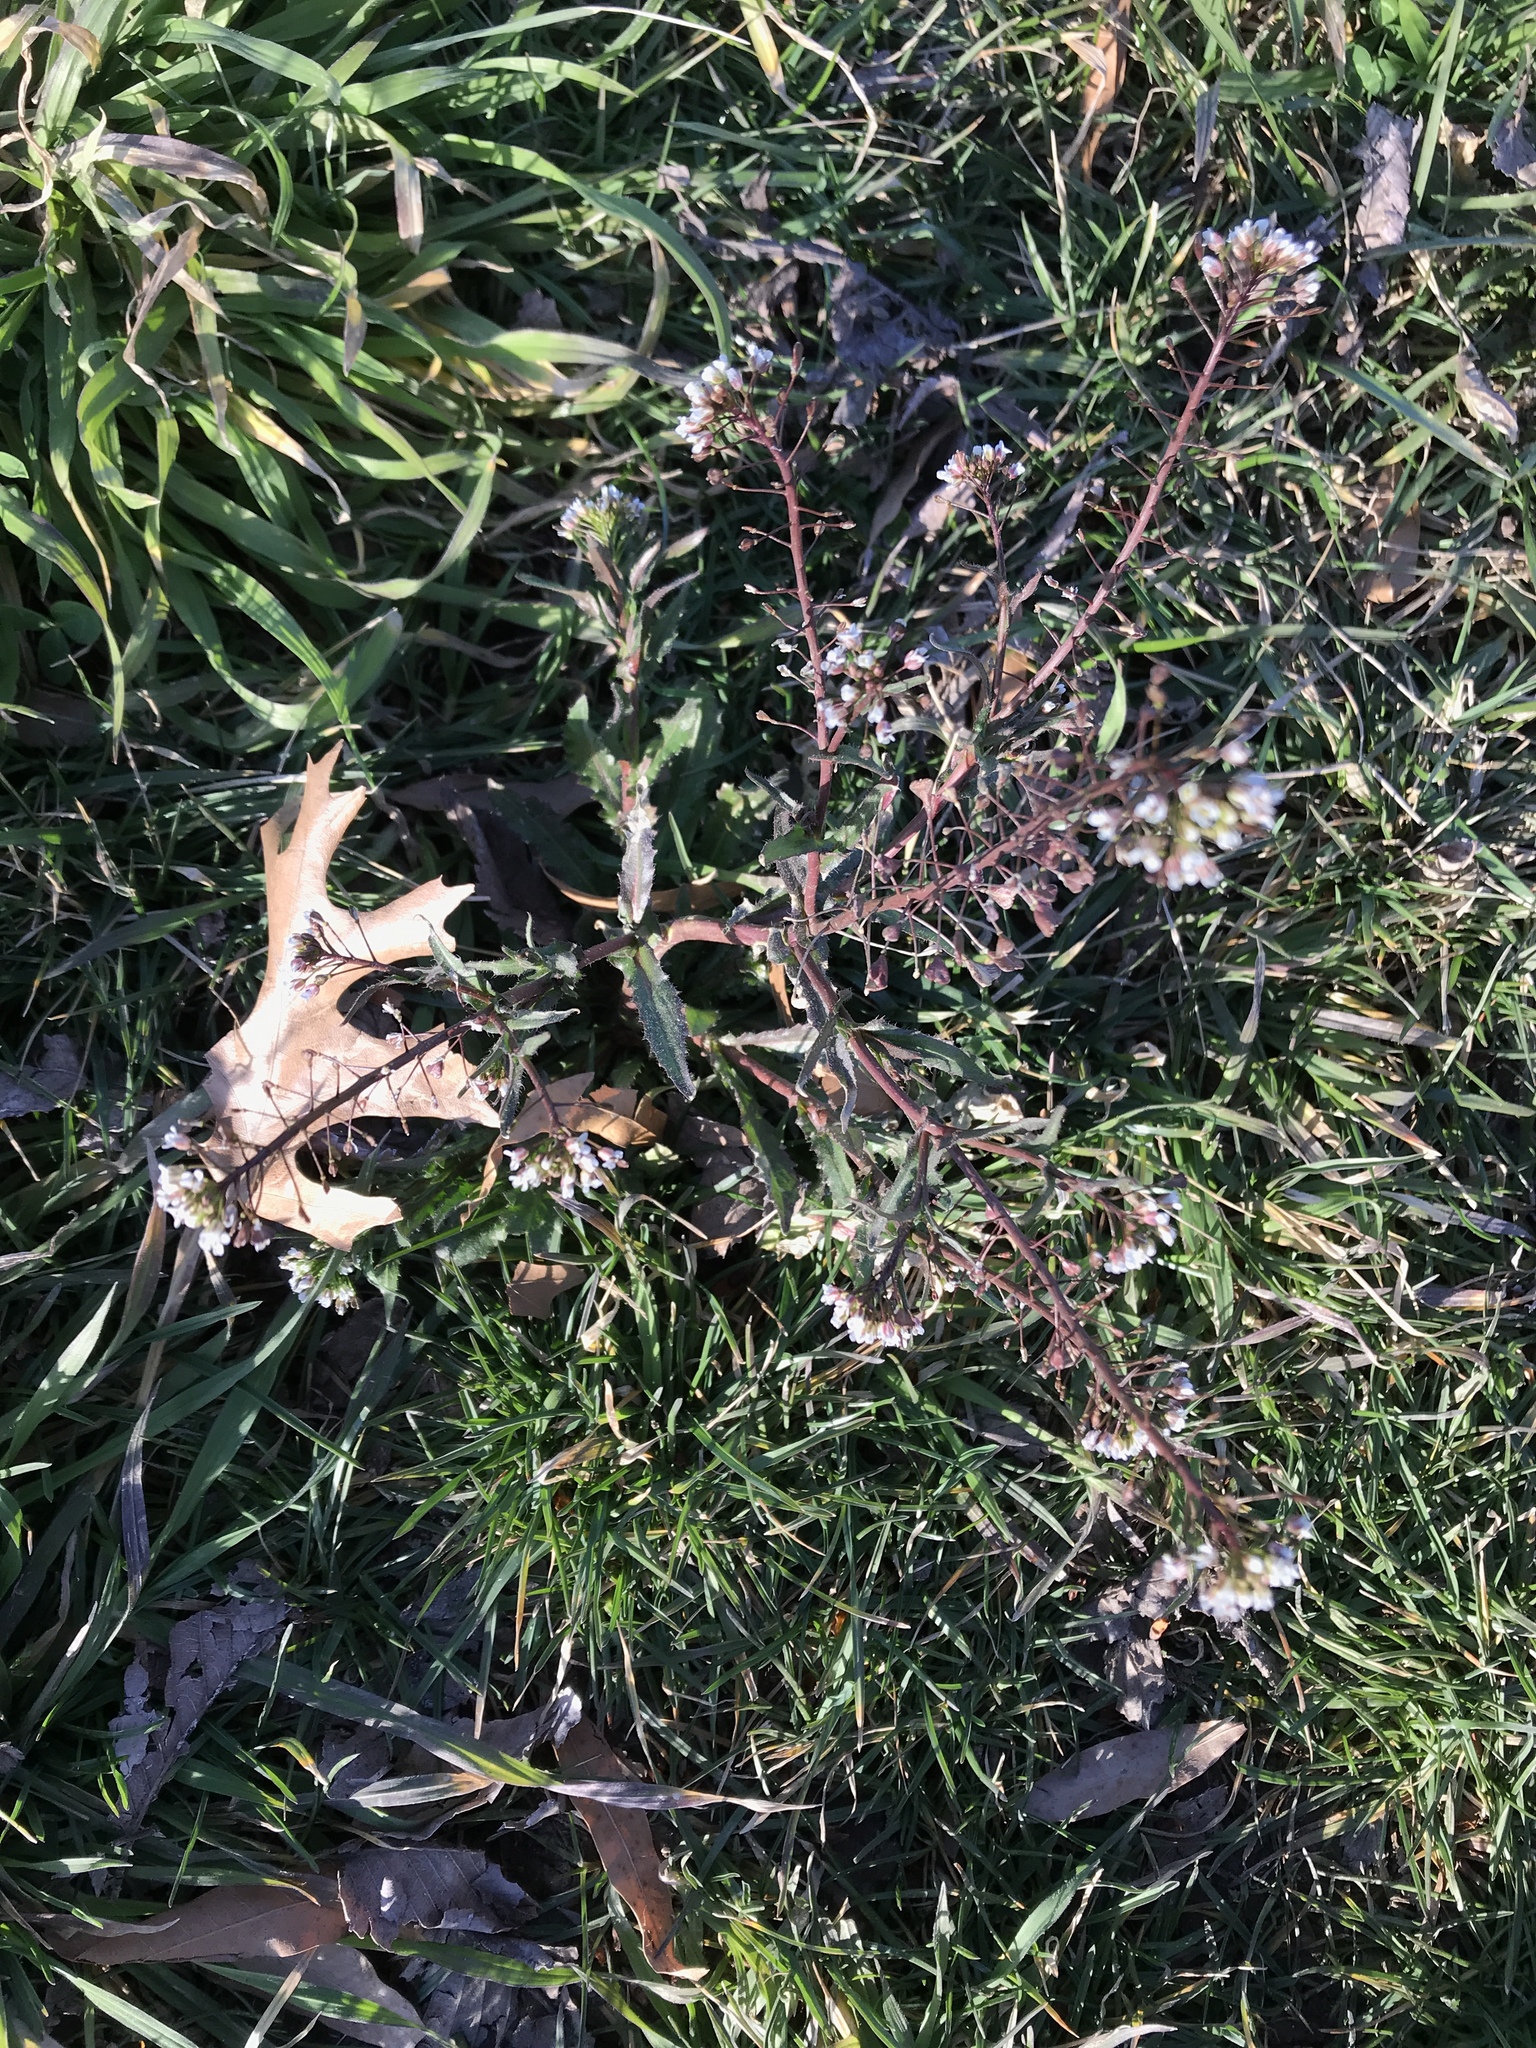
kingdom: Plantae
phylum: Tracheophyta
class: Magnoliopsida
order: Brassicales
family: Brassicaceae
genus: Capsella
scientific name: Capsella bursa-pastoris
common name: Shepherd's purse
